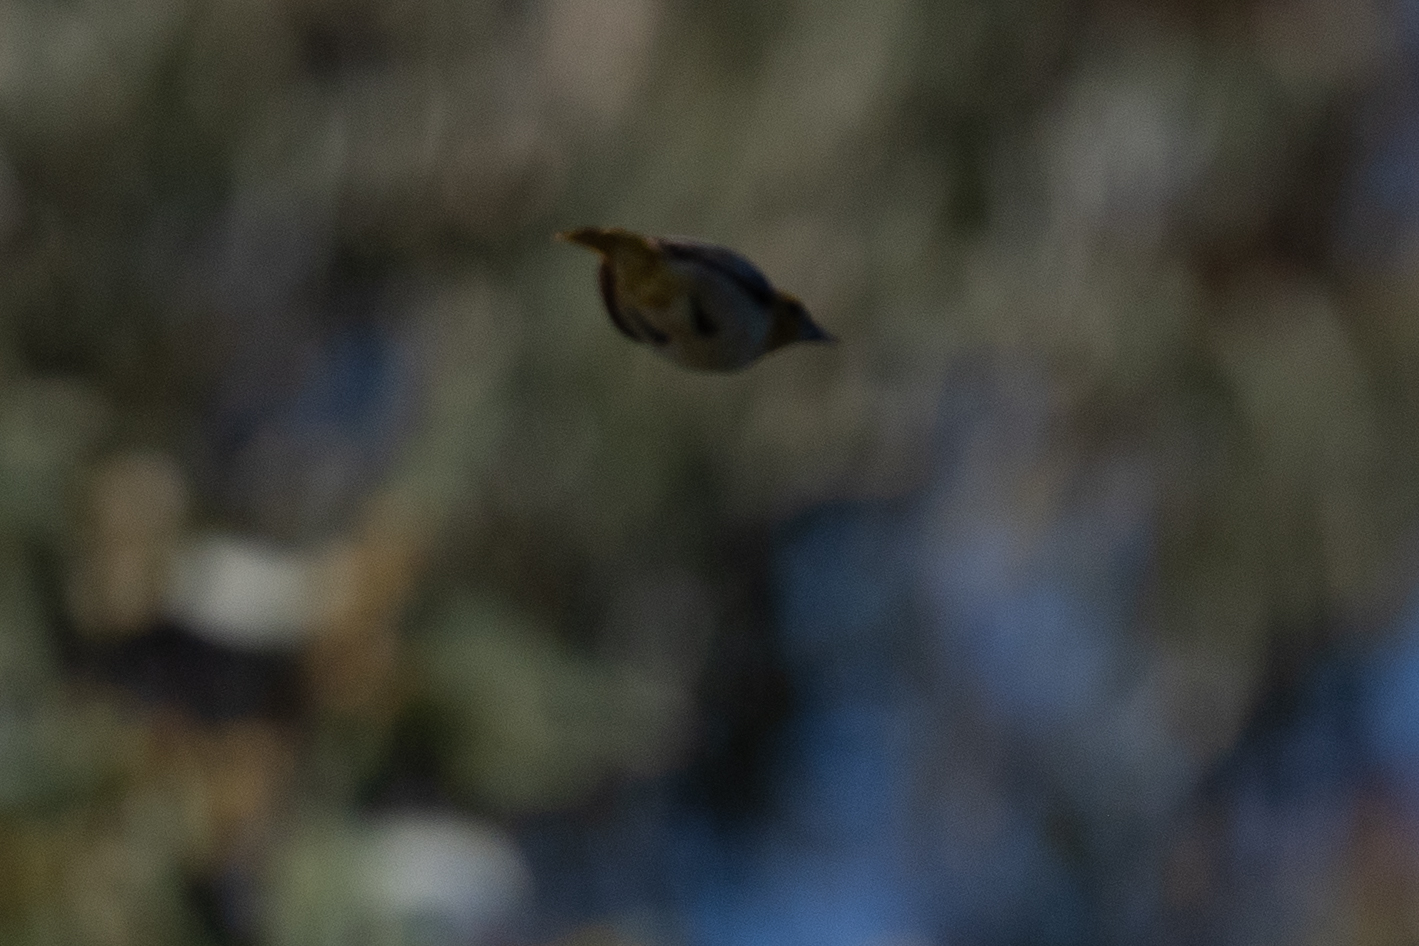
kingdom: Animalia
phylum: Chordata
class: Aves
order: Passeriformes
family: Icteridae
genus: Icterus
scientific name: Icterus bullockii
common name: Bullock's oriole
